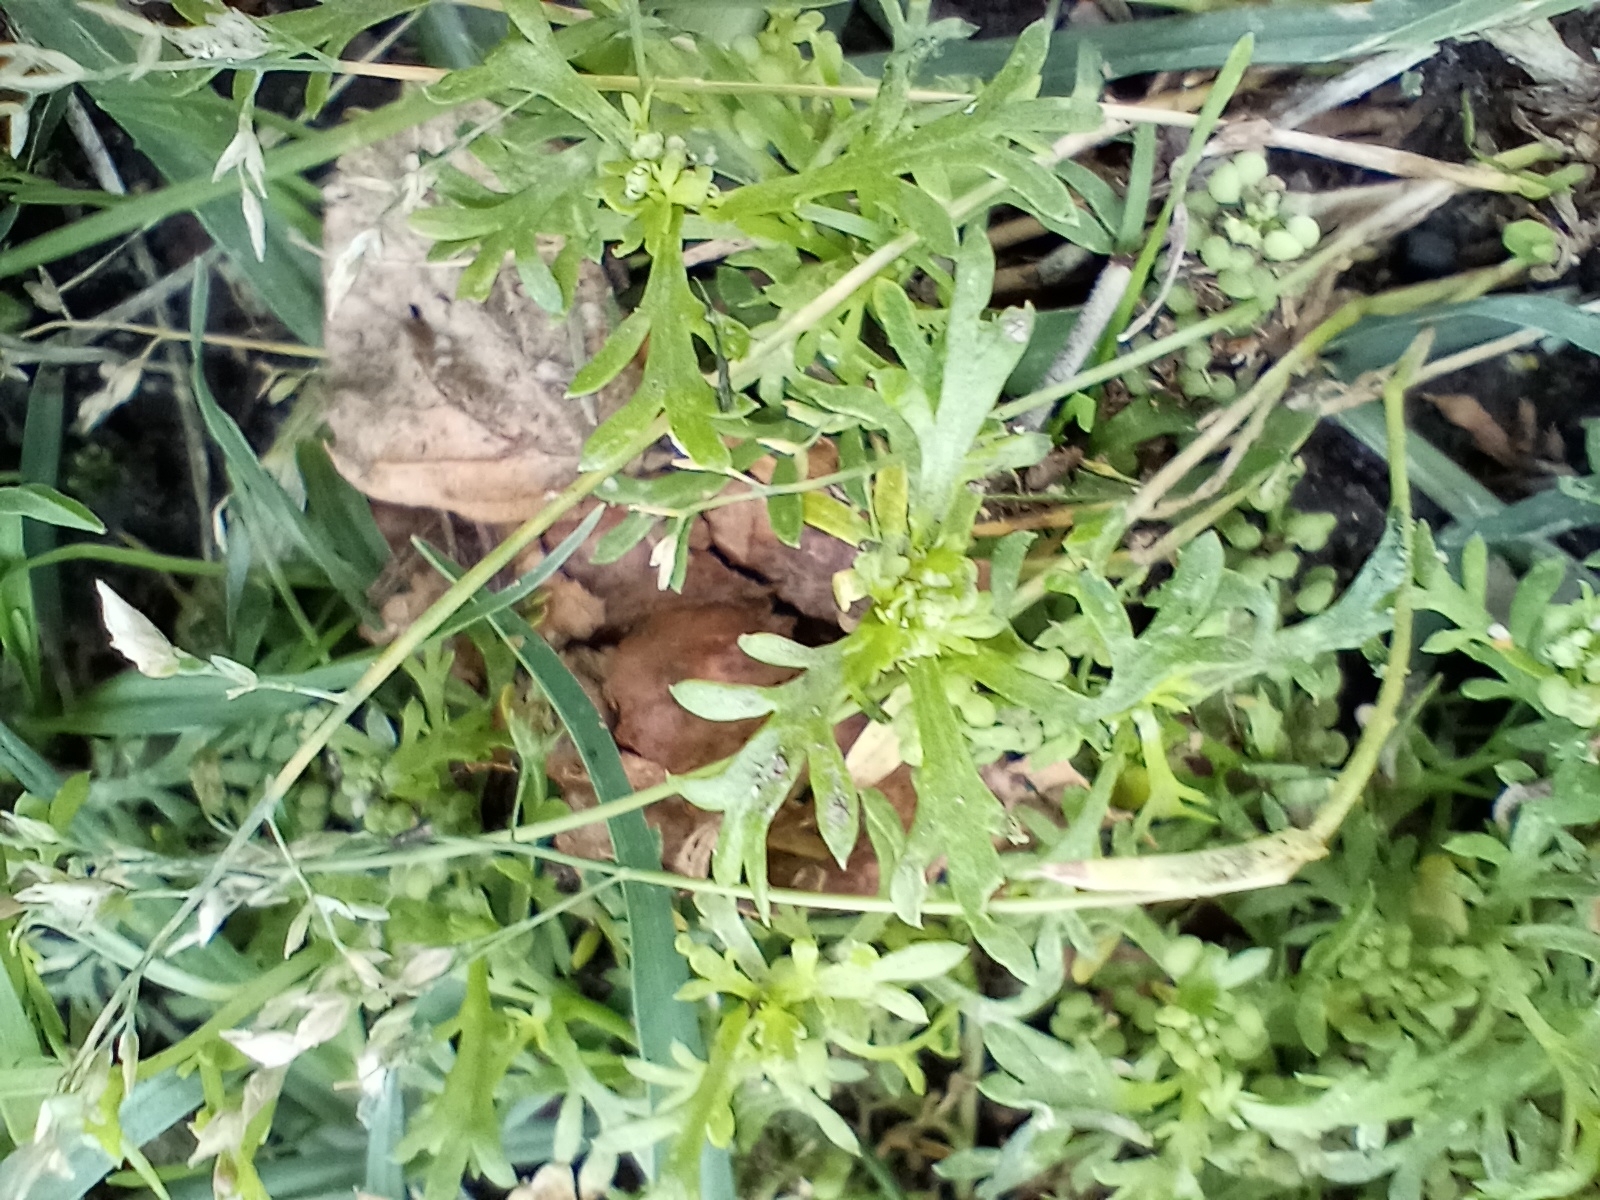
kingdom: Plantae
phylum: Tracheophyta
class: Magnoliopsida
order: Brassicales
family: Brassicaceae
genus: Lepidium
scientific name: Lepidium didymum
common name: Lesser swinecress
